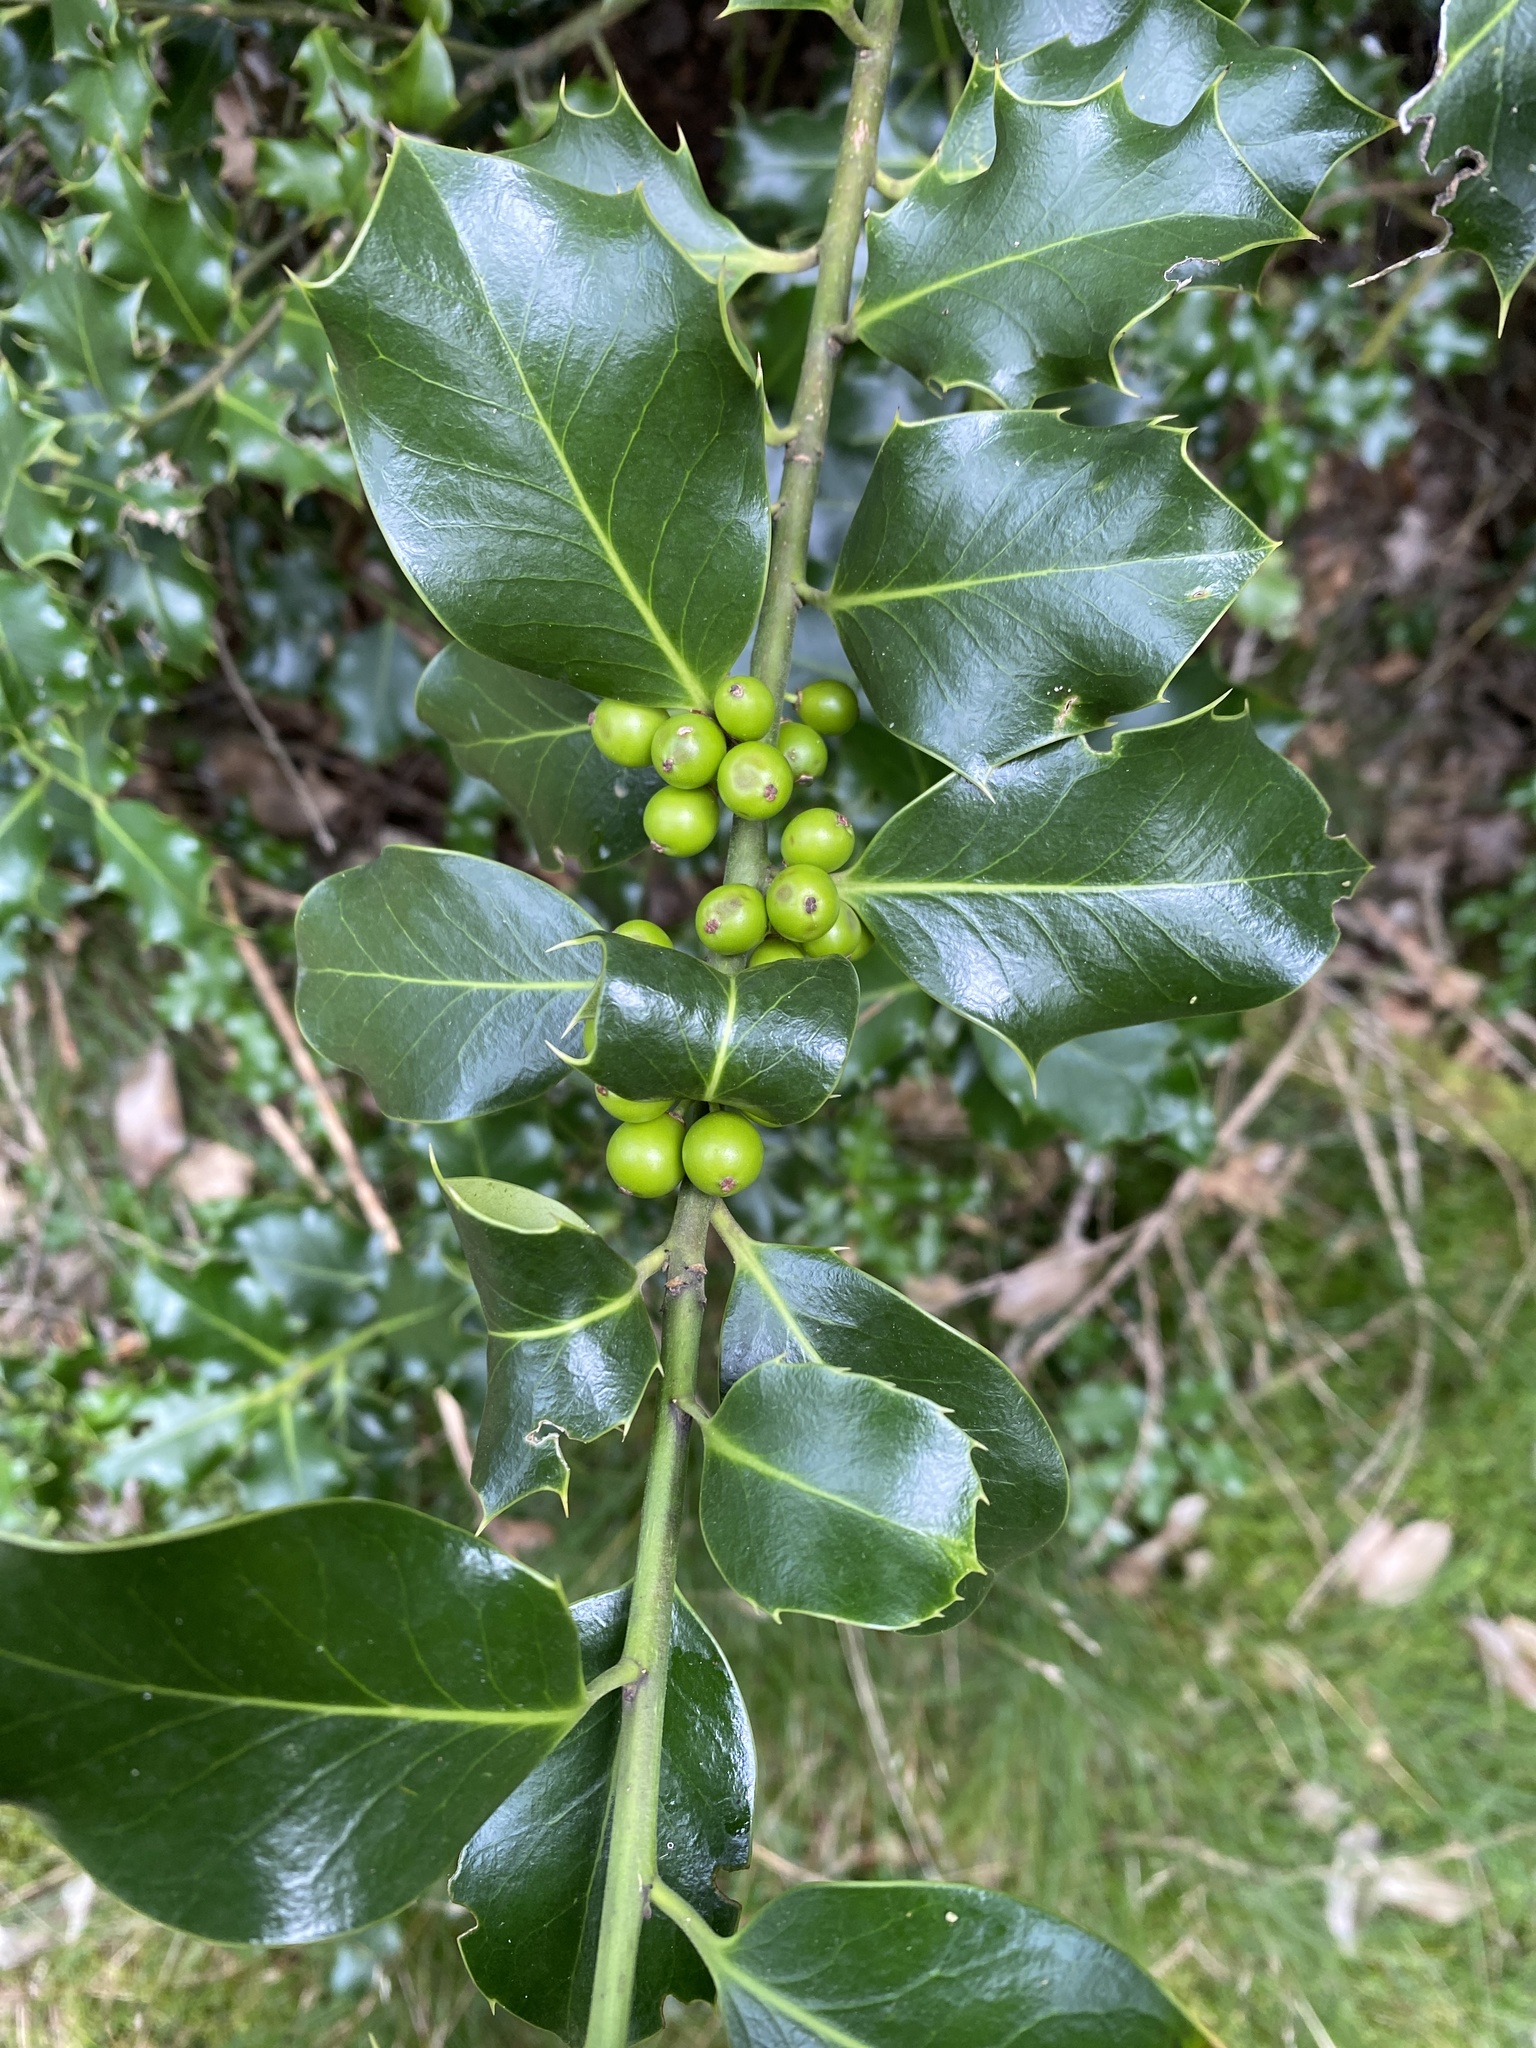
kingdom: Plantae
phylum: Tracheophyta
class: Magnoliopsida
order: Aquifoliales
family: Aquifoliaceae
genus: Ilex
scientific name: Ilex aquifolium
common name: English holly
